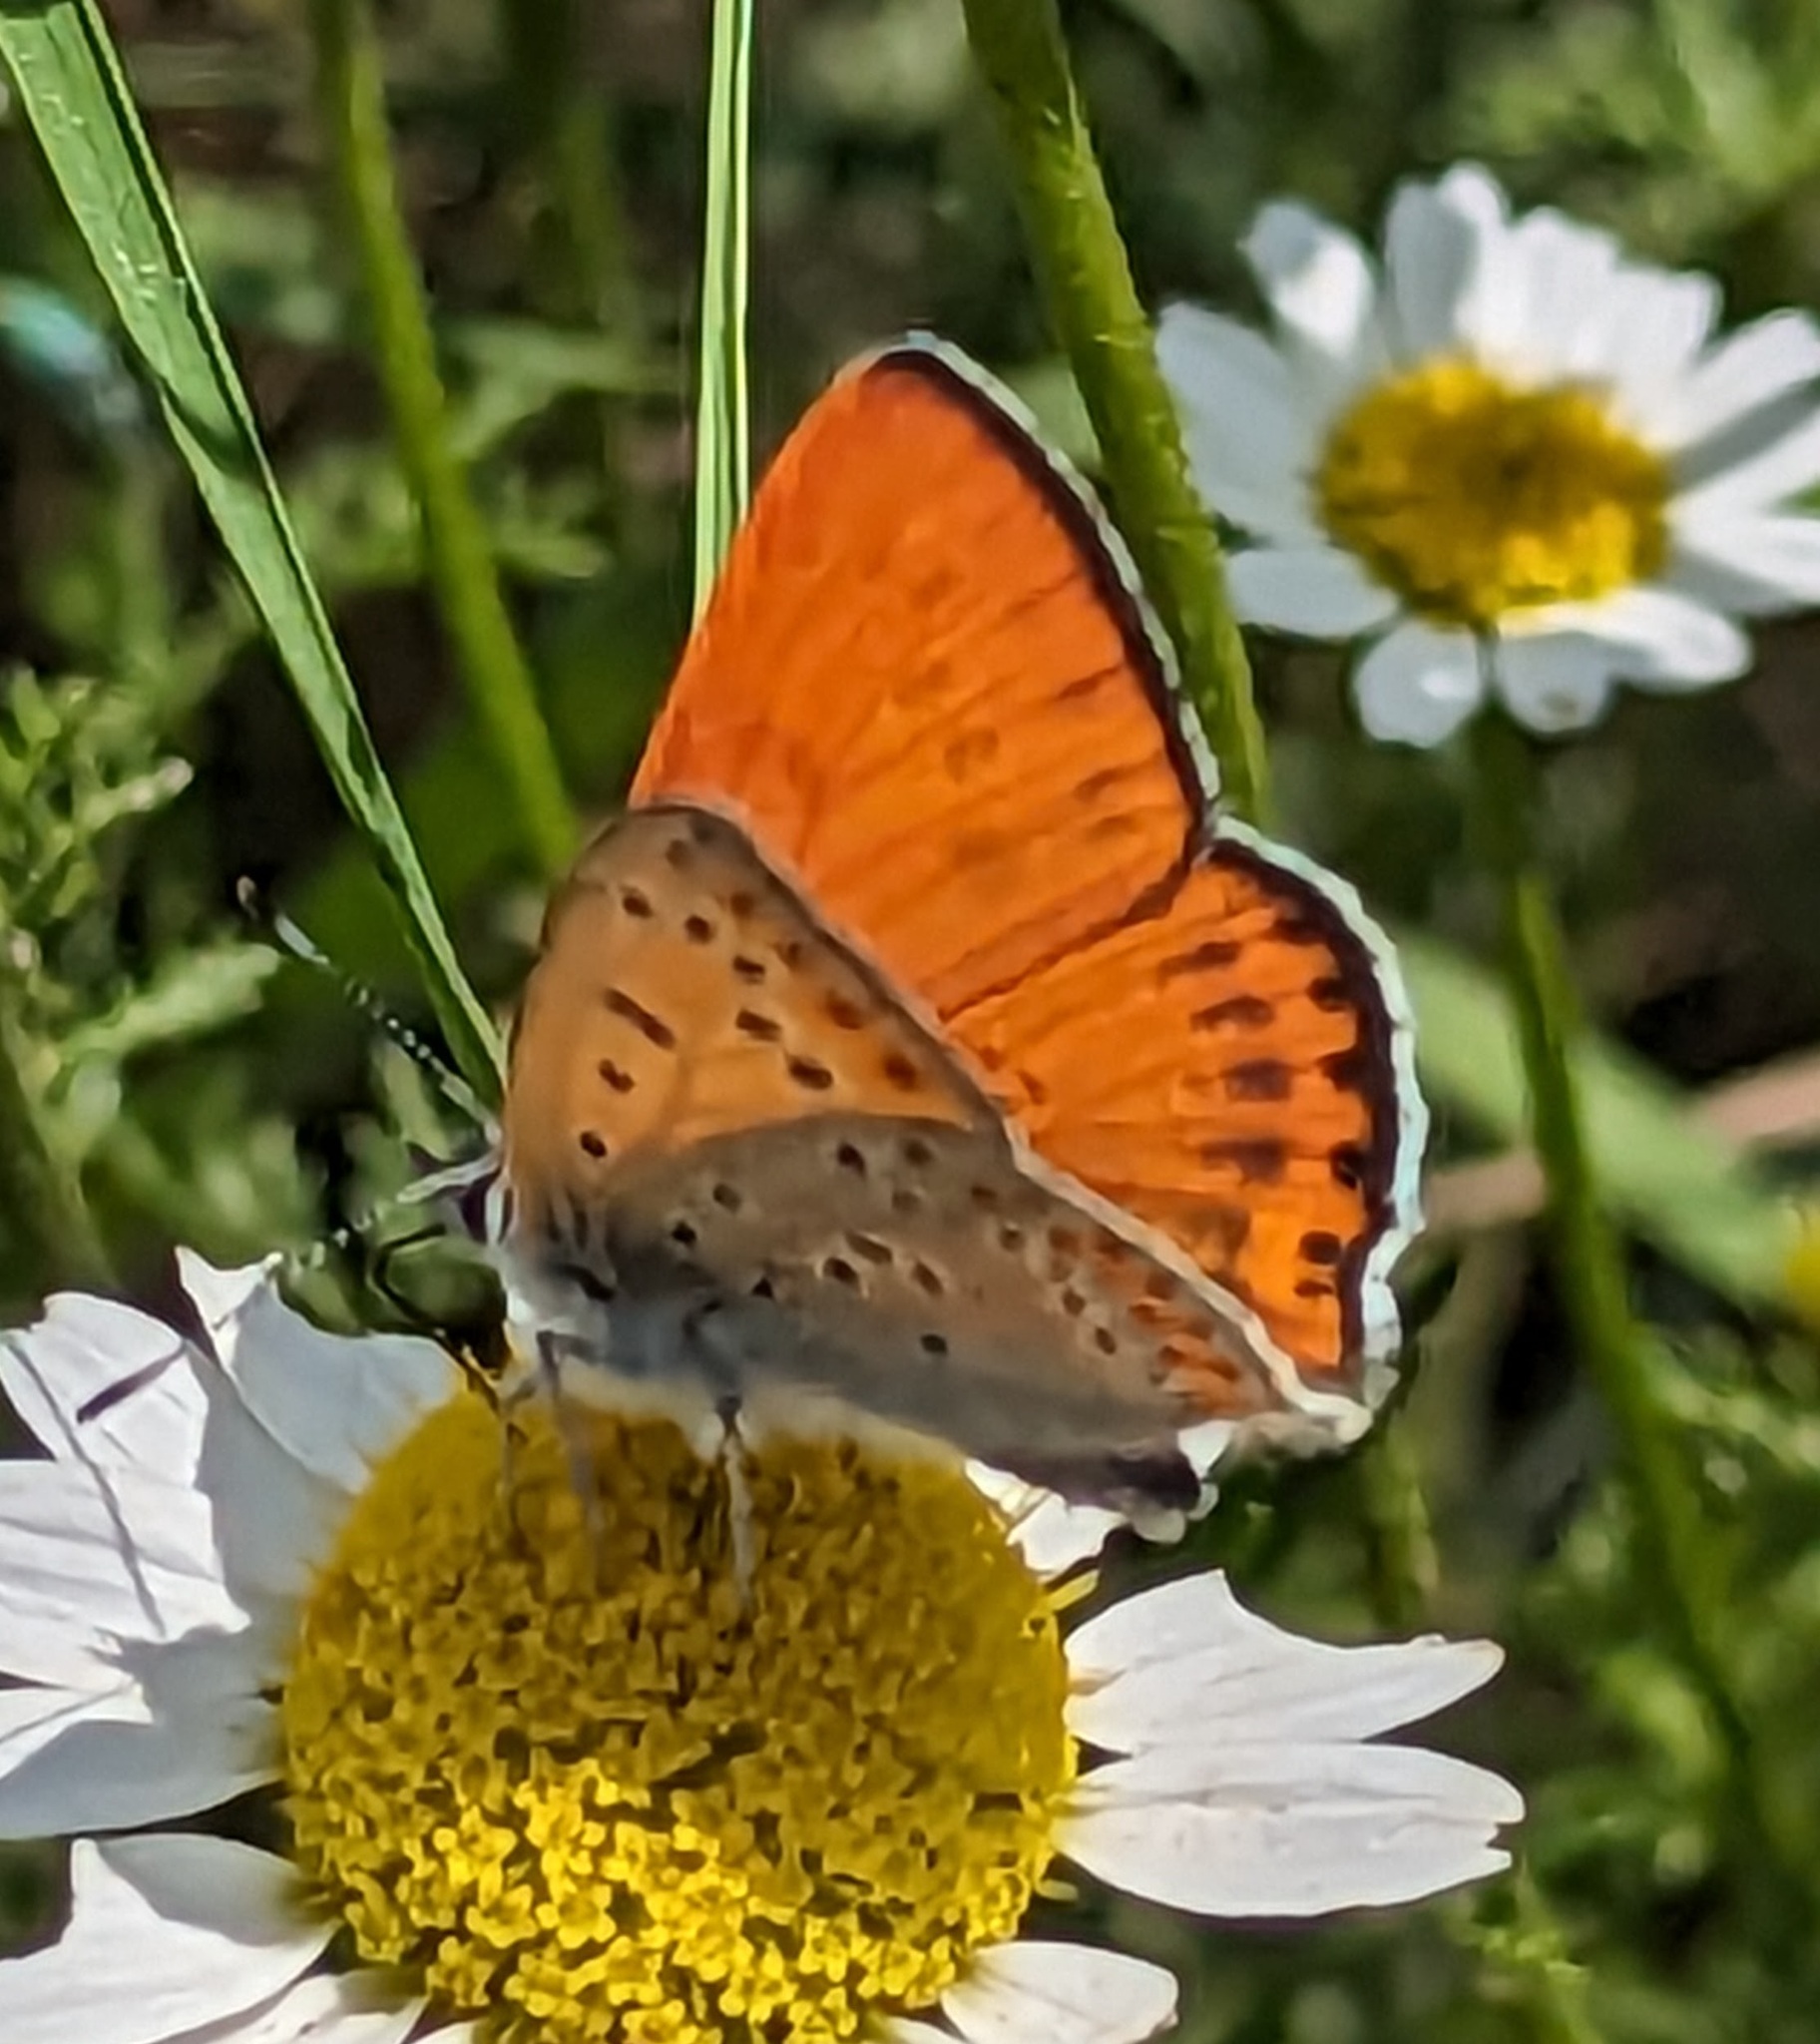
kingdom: Animalia
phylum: Arthropoda
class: Insecta
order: Lepidoptera
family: Lycaenidae
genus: Thersamonia
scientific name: Thersamonia thersamon
